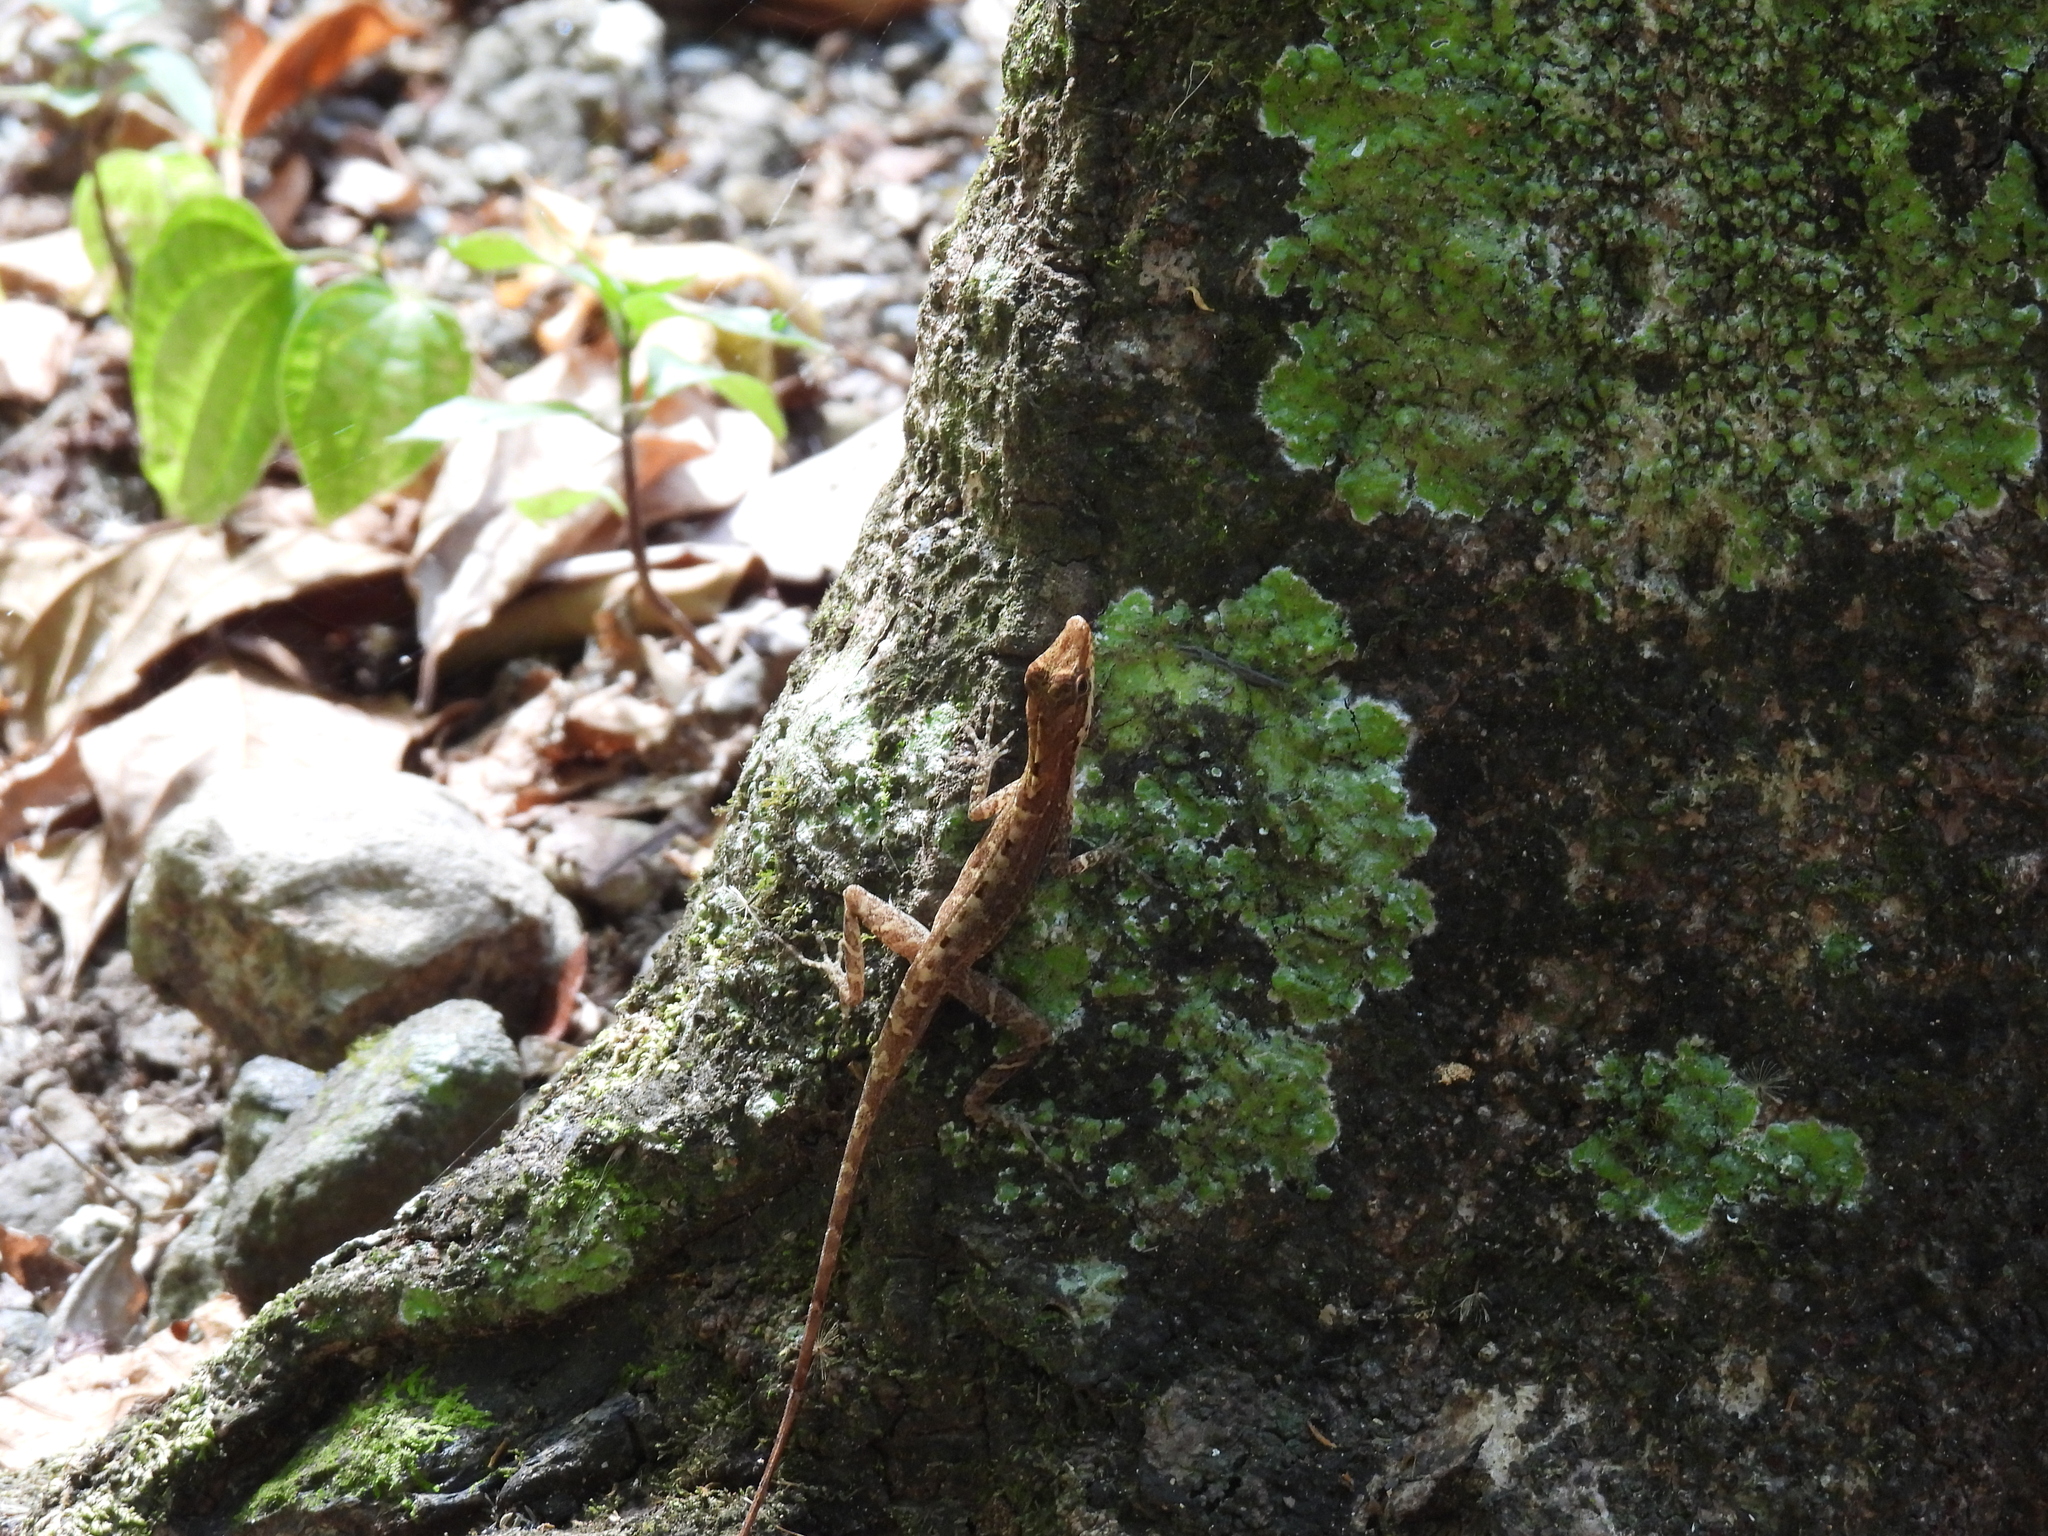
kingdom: Animalia
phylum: Chordata
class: Squamata
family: Dactyloidae
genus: Anolis
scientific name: Anolis apletophallus
